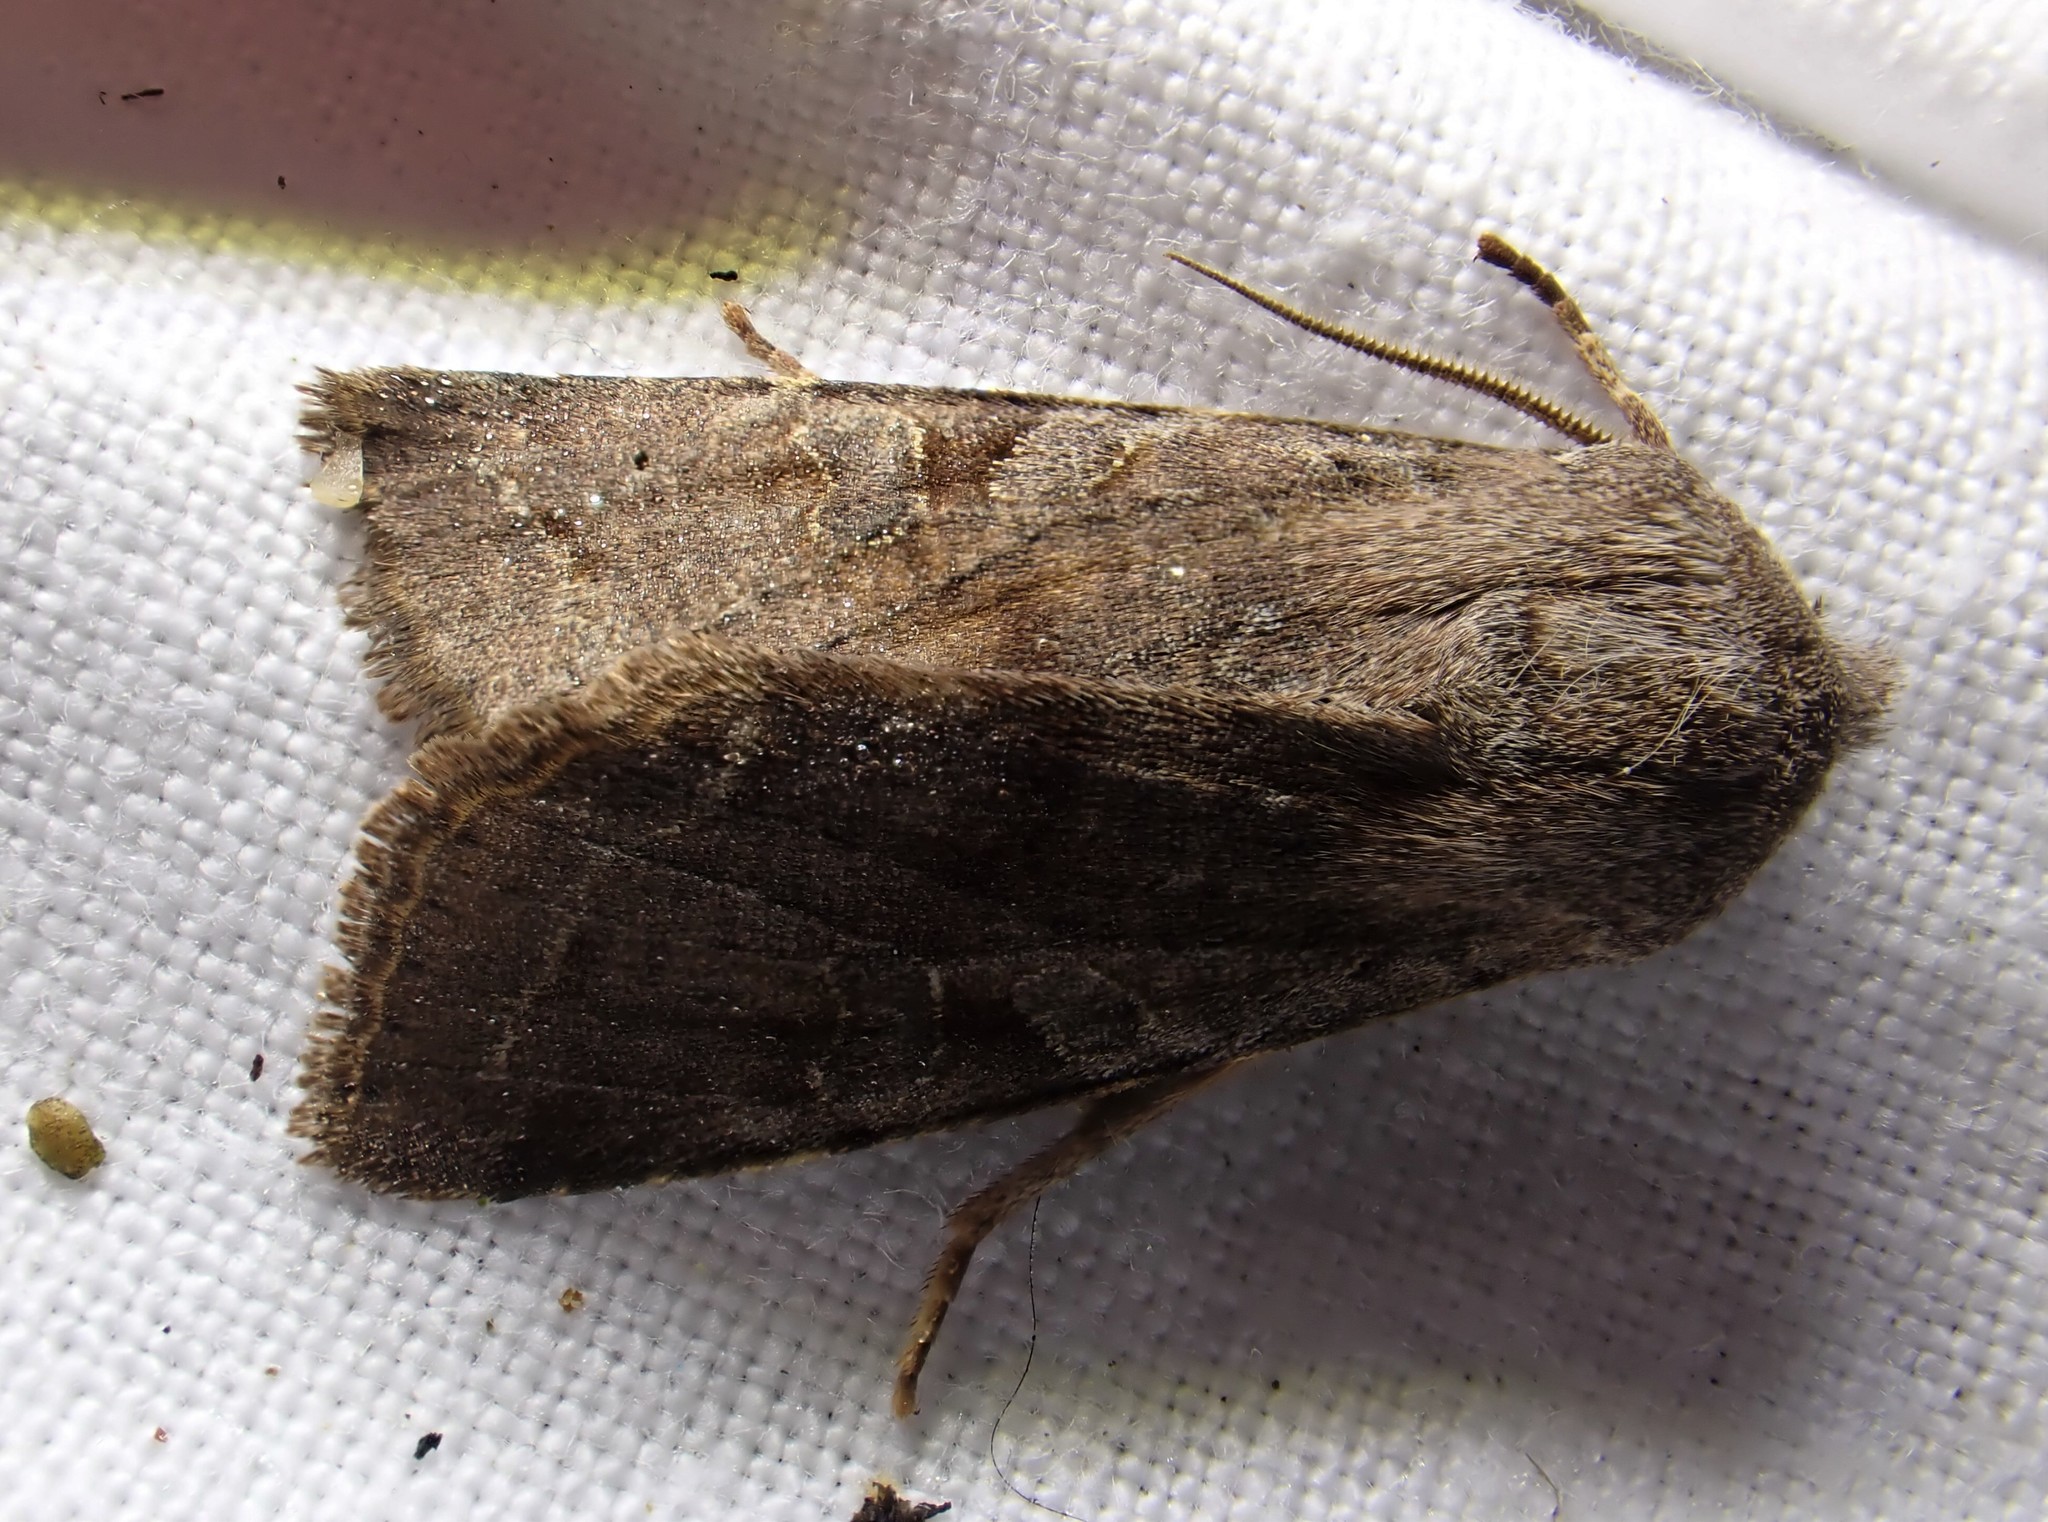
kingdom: Animalia
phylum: Arthropoda
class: Insecta
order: Lepidoptera
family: Noctuidae
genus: Orthosia
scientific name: Orthosia incerta
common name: Clouded drab
